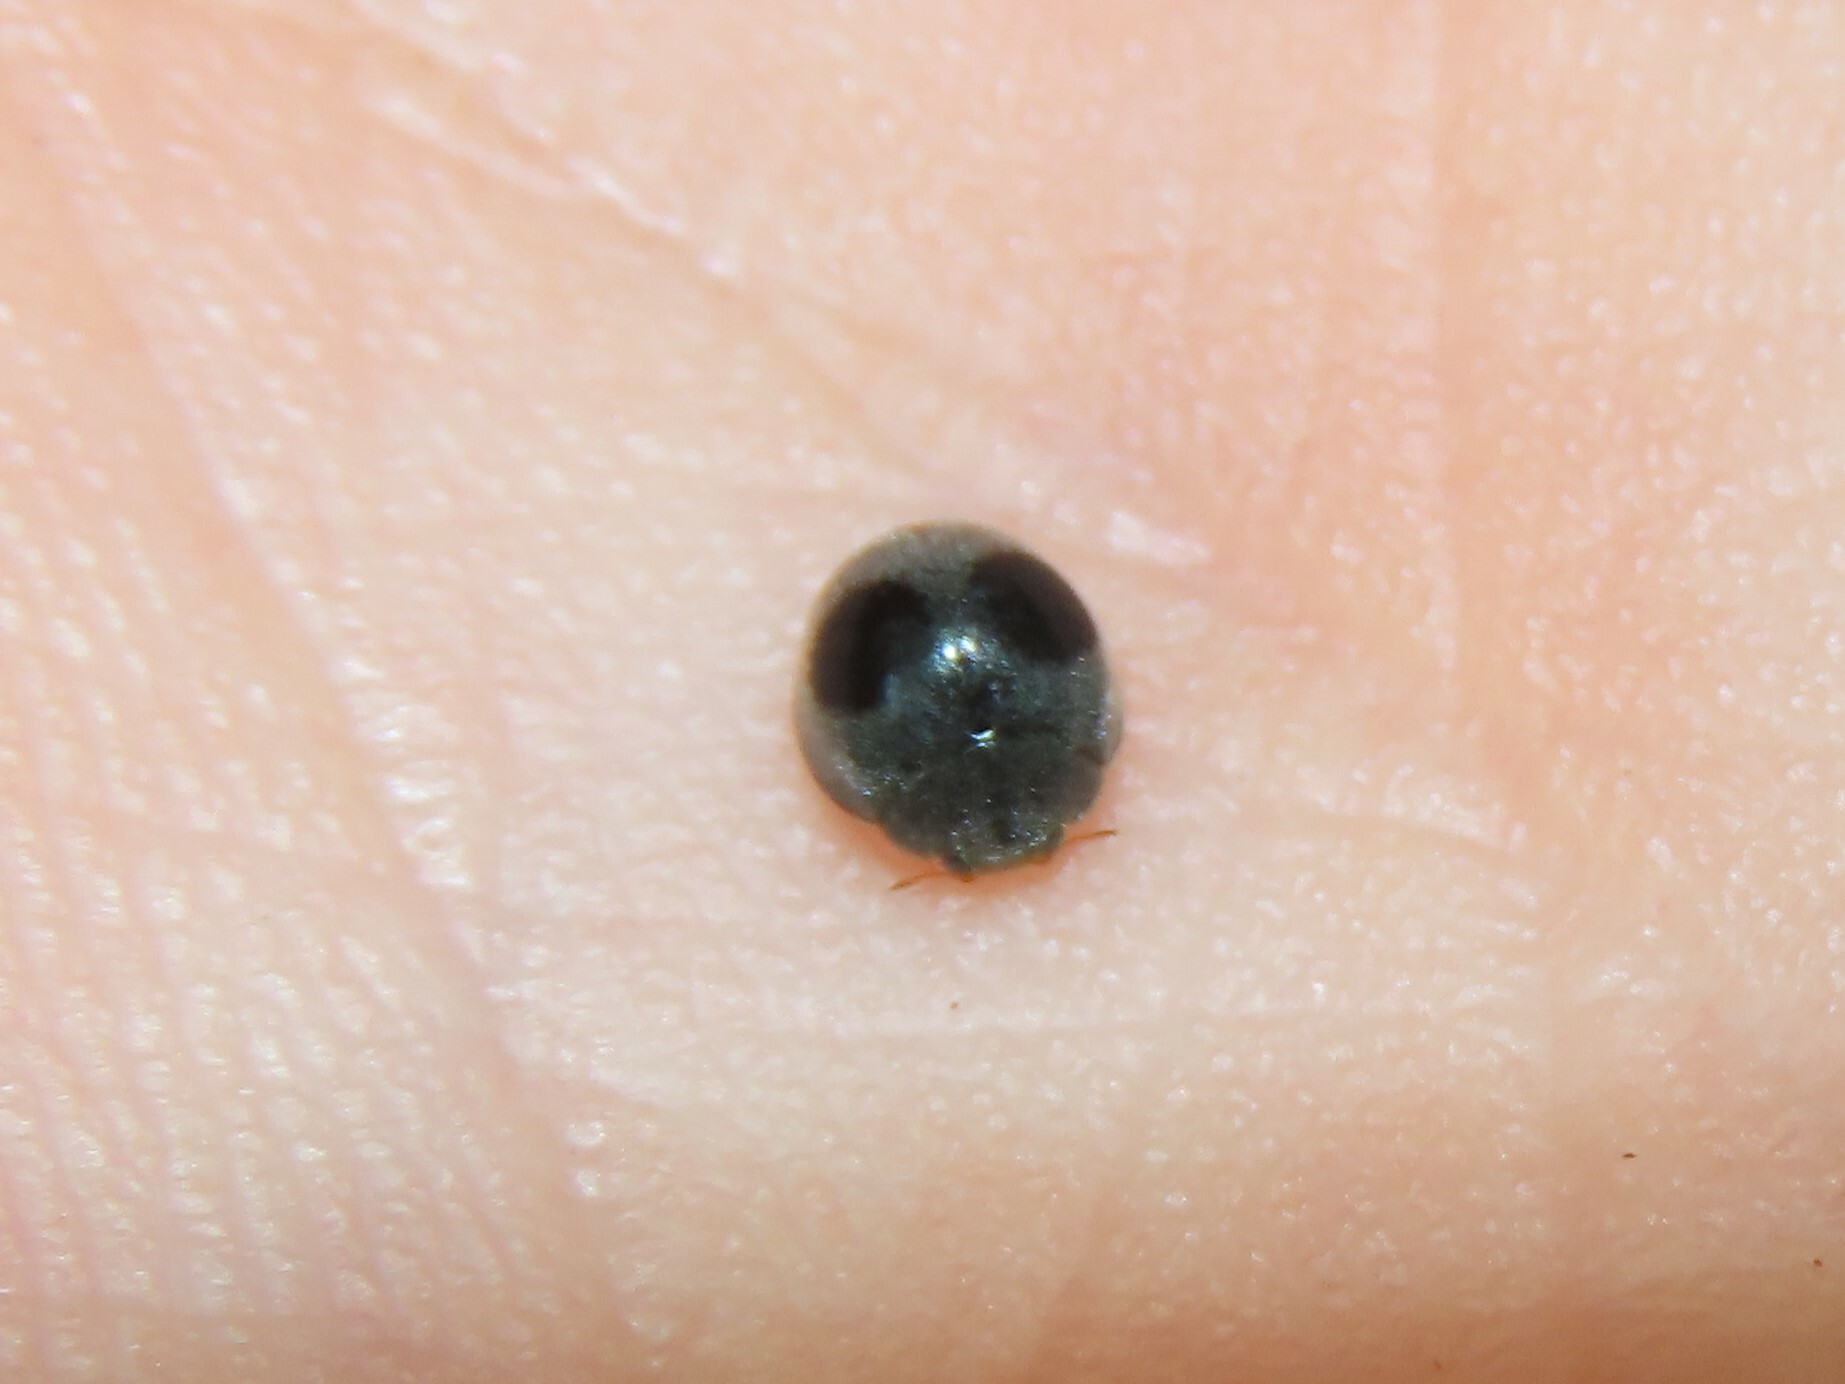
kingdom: Animalia
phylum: Arthropoda
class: Insecta
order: Coleoptera
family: Coccinellidae
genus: Azya
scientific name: Azya orbigera
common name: Ladybird beetle
